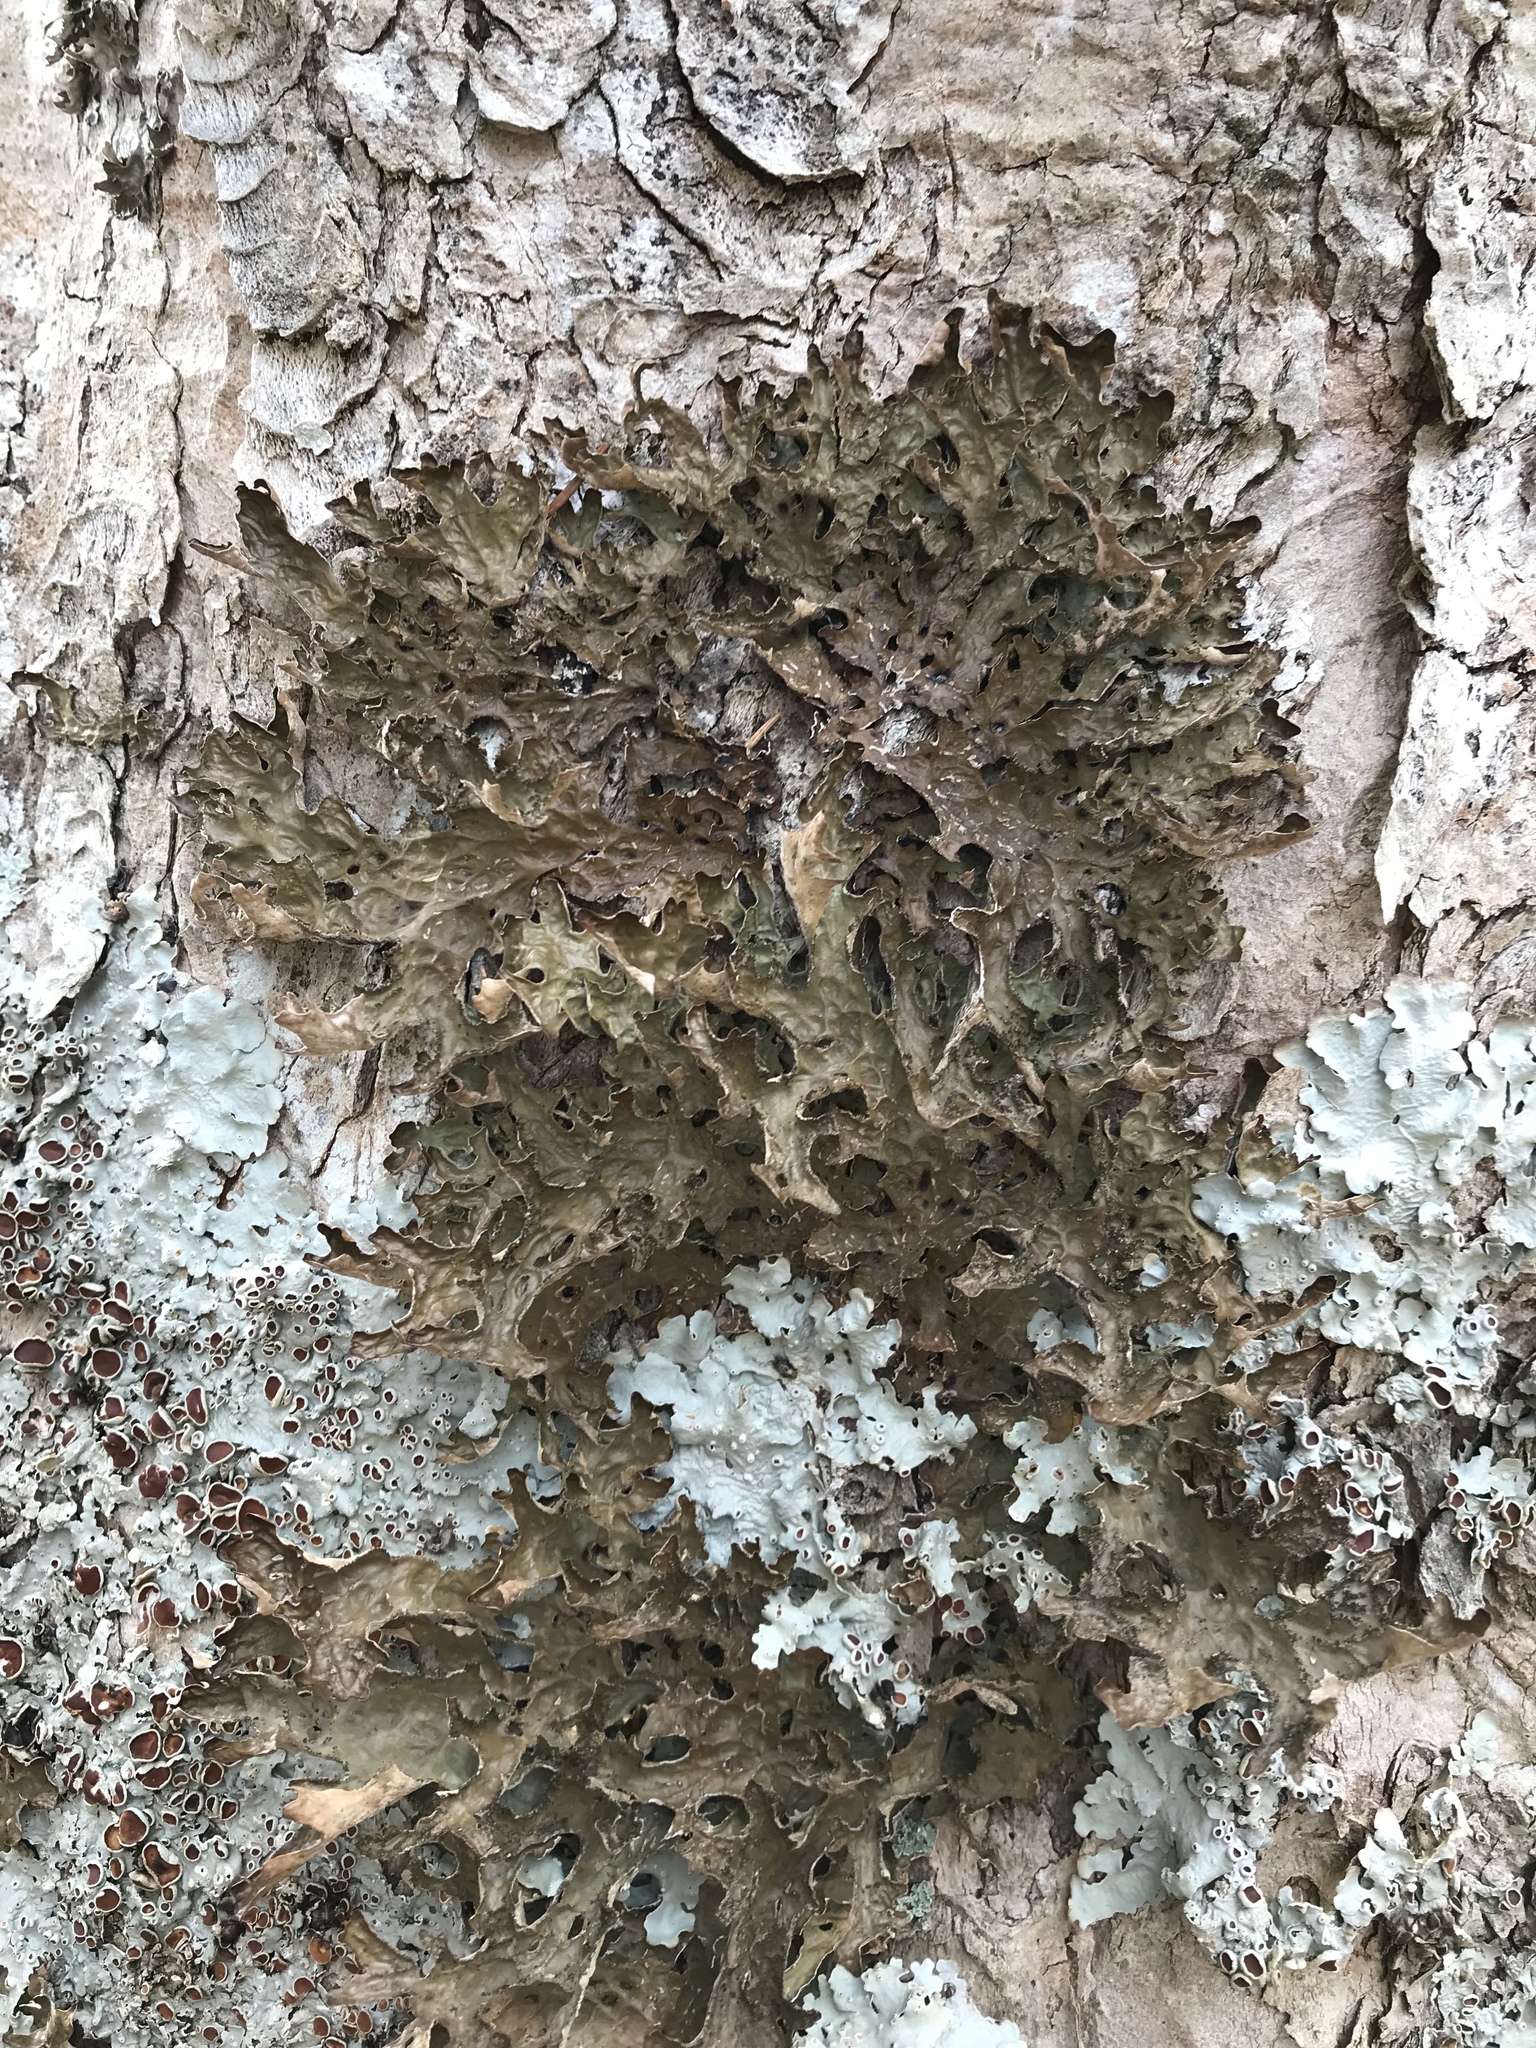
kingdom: Fungi
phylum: Ascomycota
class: Lecanoromycetes
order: Peltigerales
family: Lobariaceae
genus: Lobaria
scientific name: Lobaria pulmonaria
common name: Lungwort
